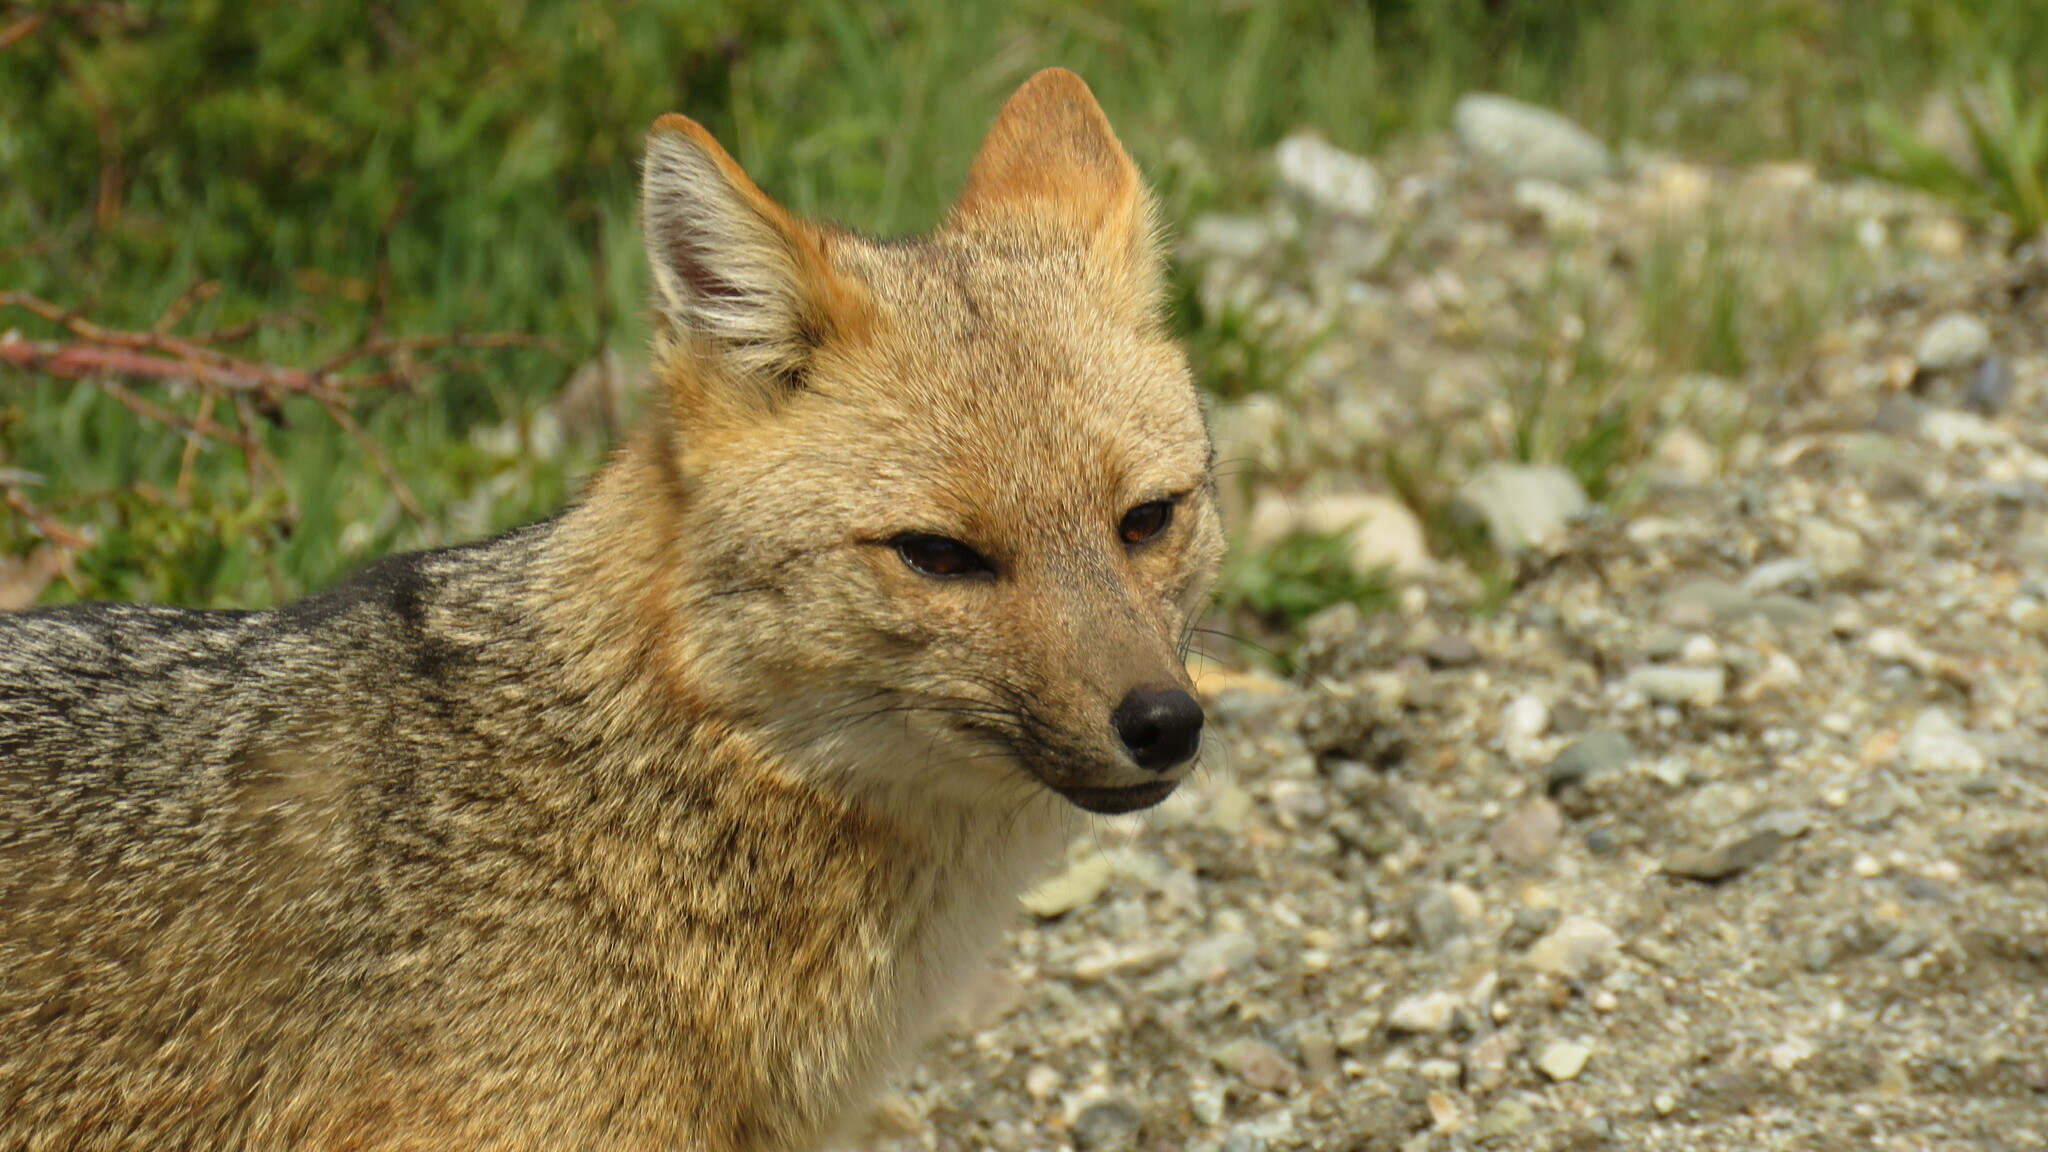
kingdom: Animalia
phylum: Chordata
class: Mammalia
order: Carnivora
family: Canidae
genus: Lycalopex
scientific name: Lycalopex culpaeus
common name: Culpeo
